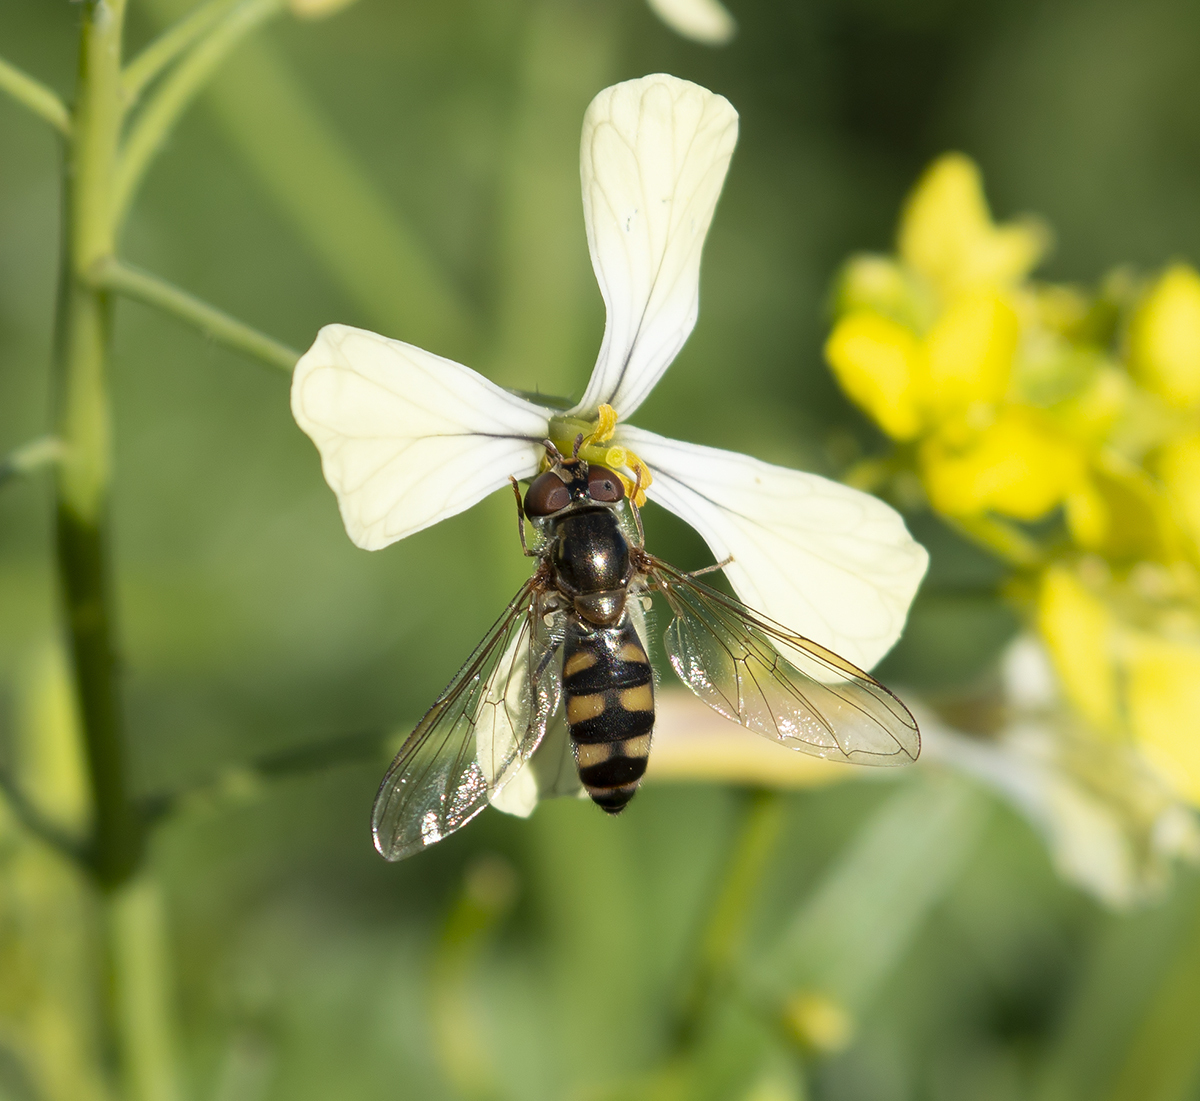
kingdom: Animalia
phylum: Arthropoda
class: Insecta
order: Diptera
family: Syrphidae
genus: Meliscaeva
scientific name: Meliscaeva auricollis
